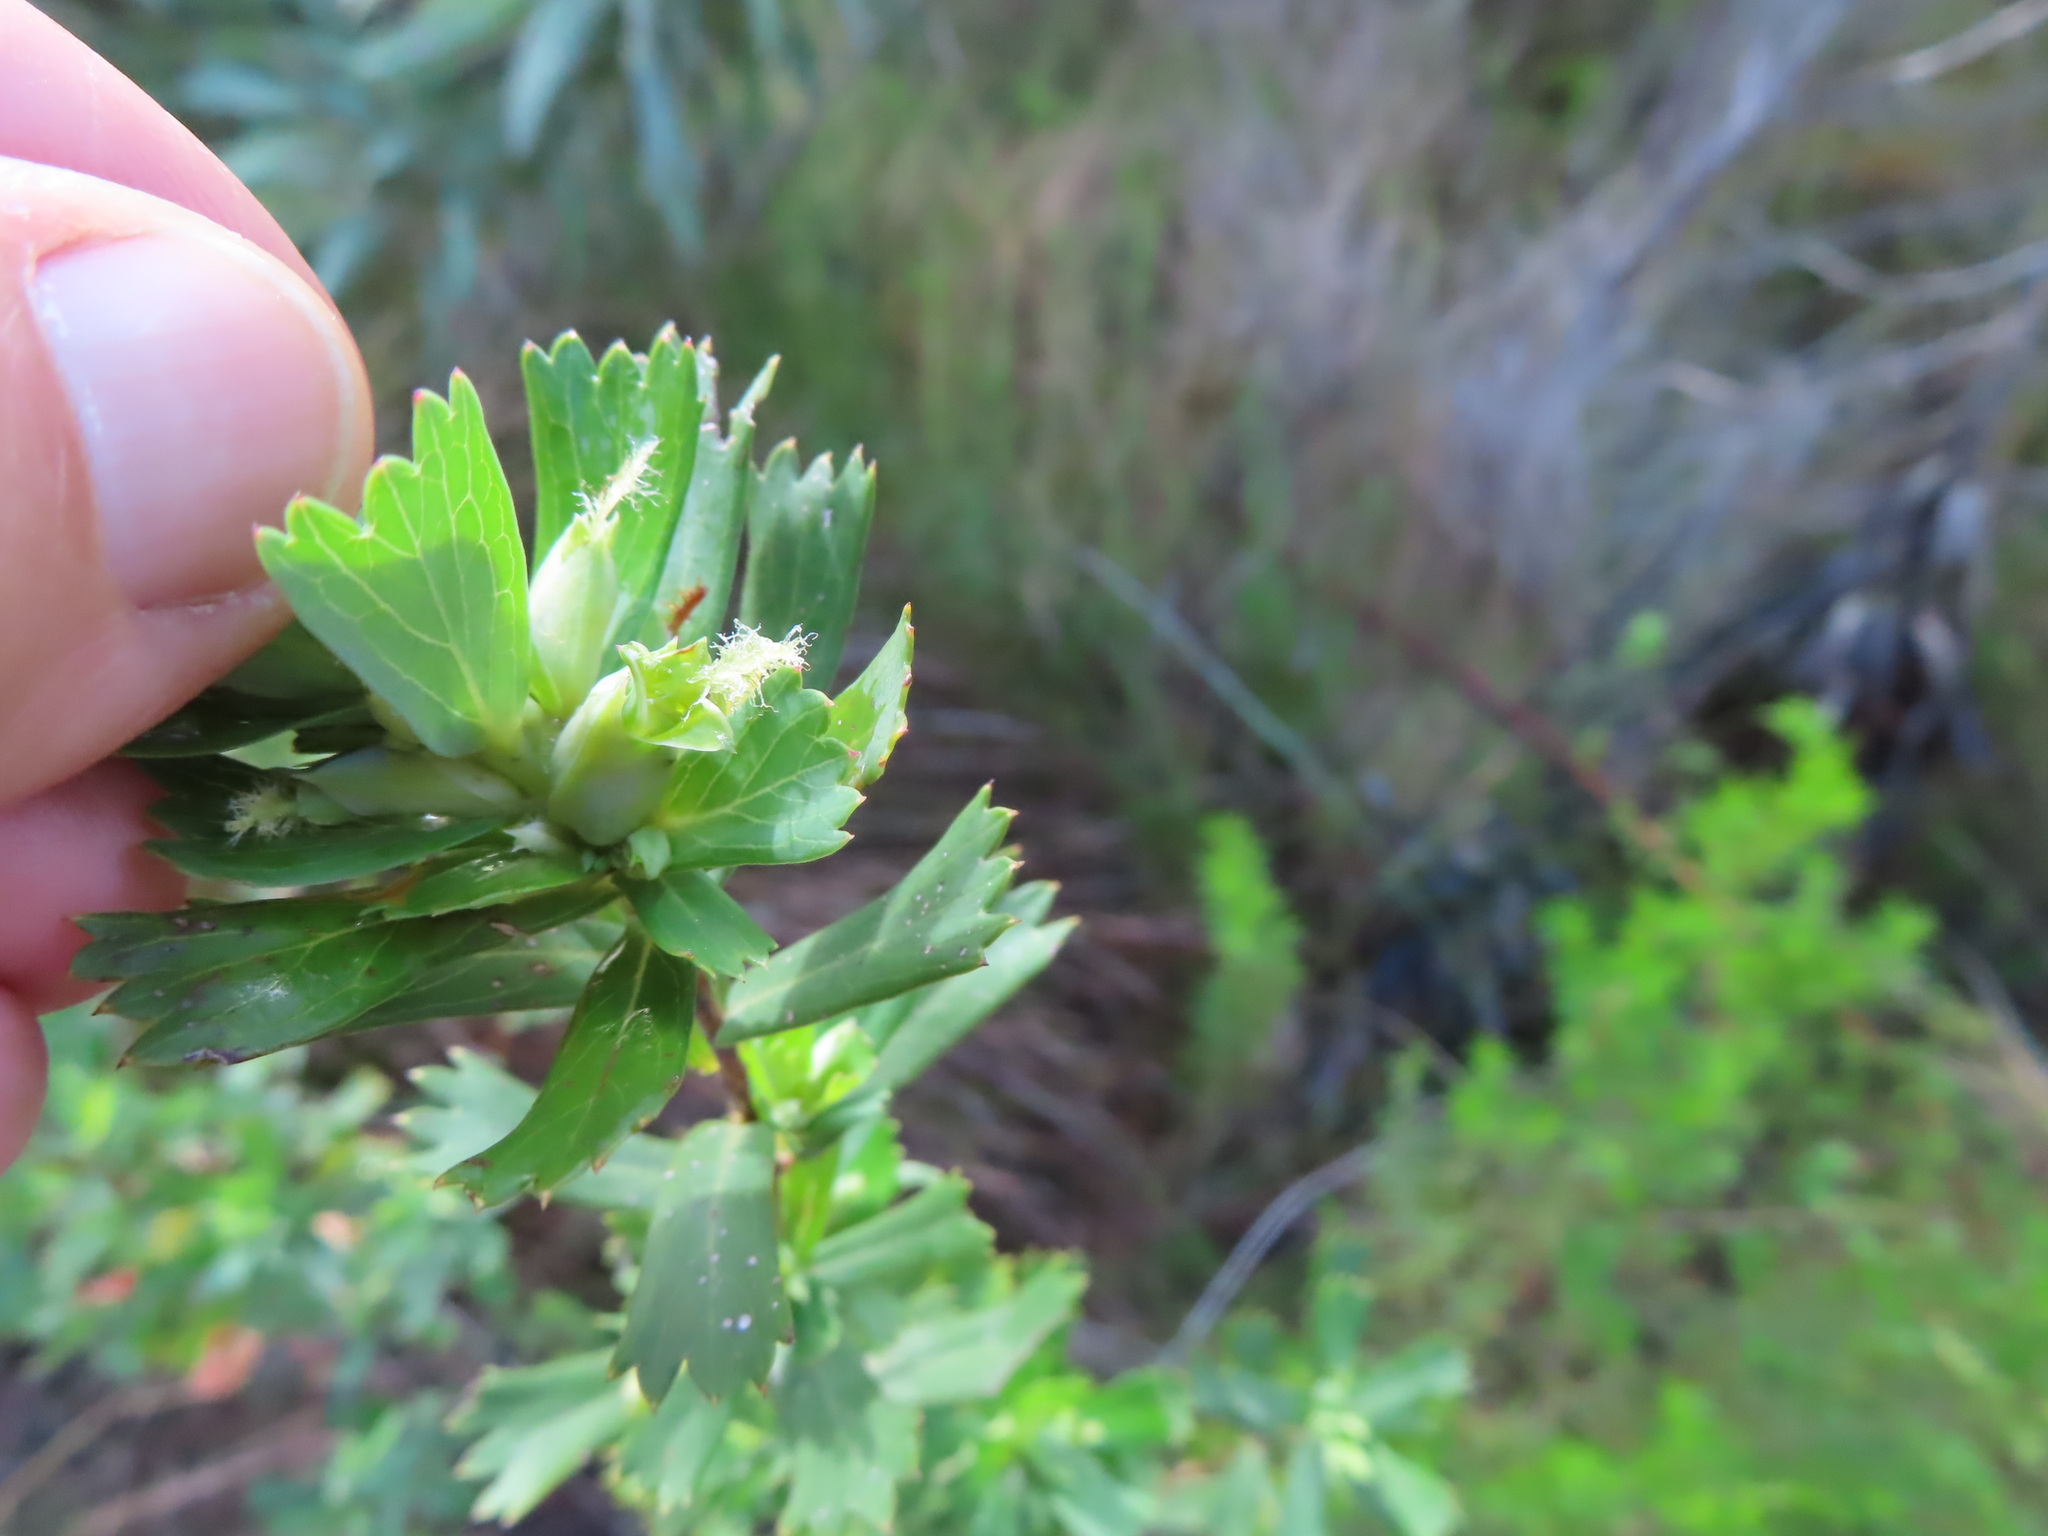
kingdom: Plantae
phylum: Tracheophyta
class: Magnoliopsida
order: Rosales
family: Rosaceae
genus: Cliffortia
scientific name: Cliffortia cuneata
